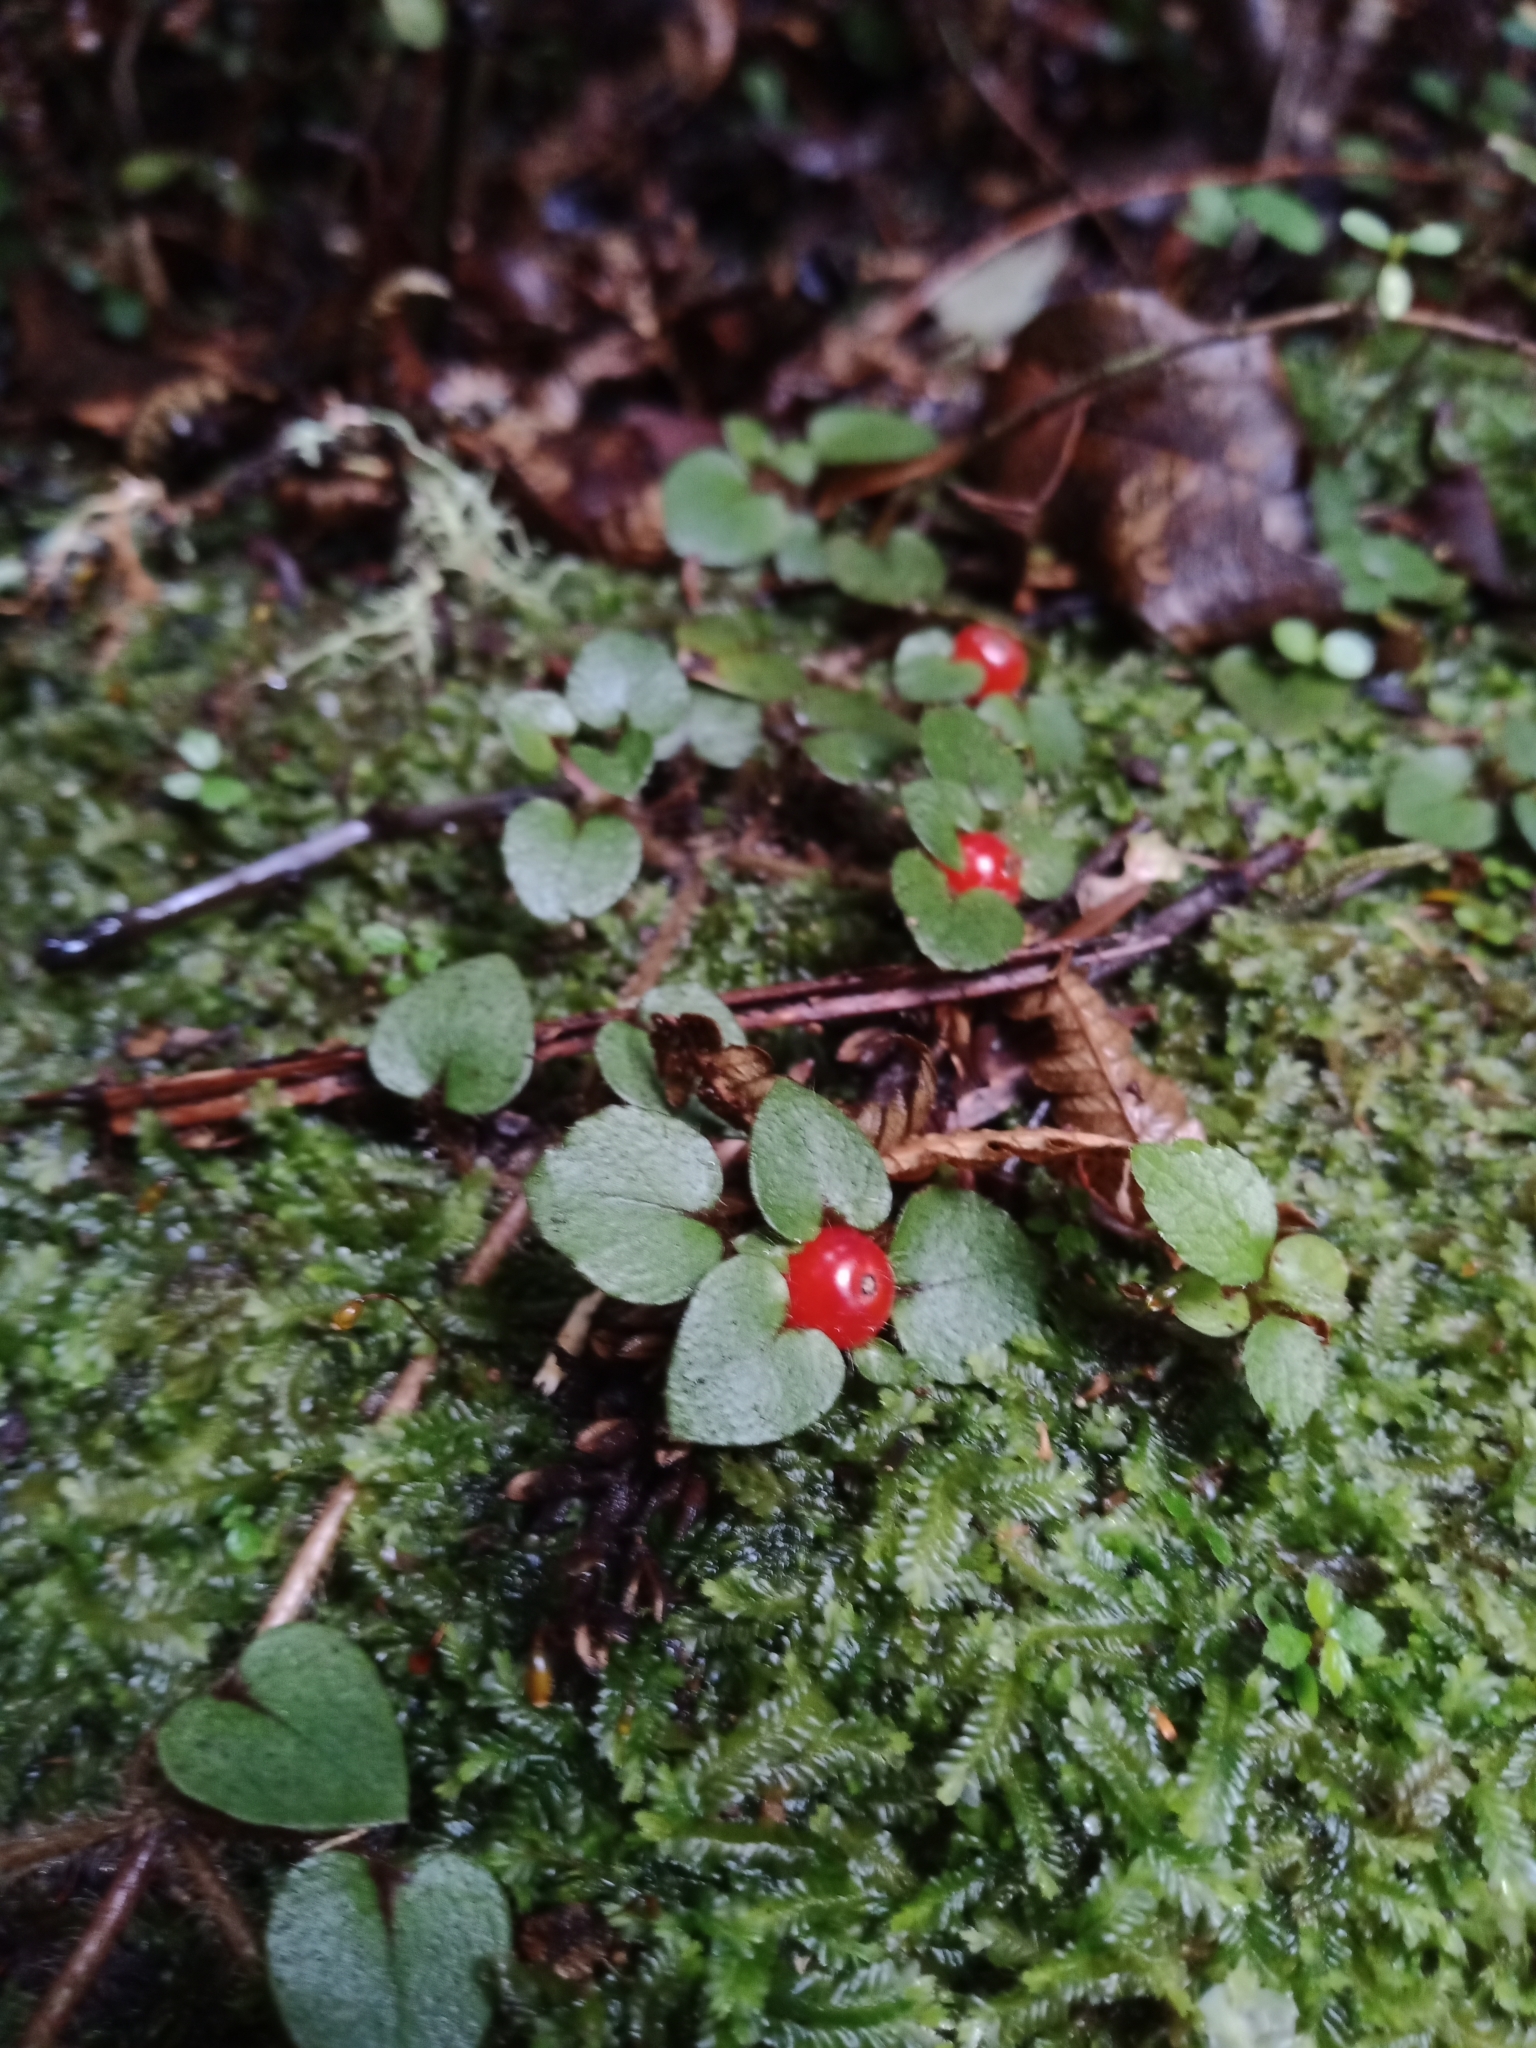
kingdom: Plantae
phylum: Tracheophyta
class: Magnoliopsida
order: Gentianales
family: Rubiaceae
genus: Nertera
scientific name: Nertera villosa
